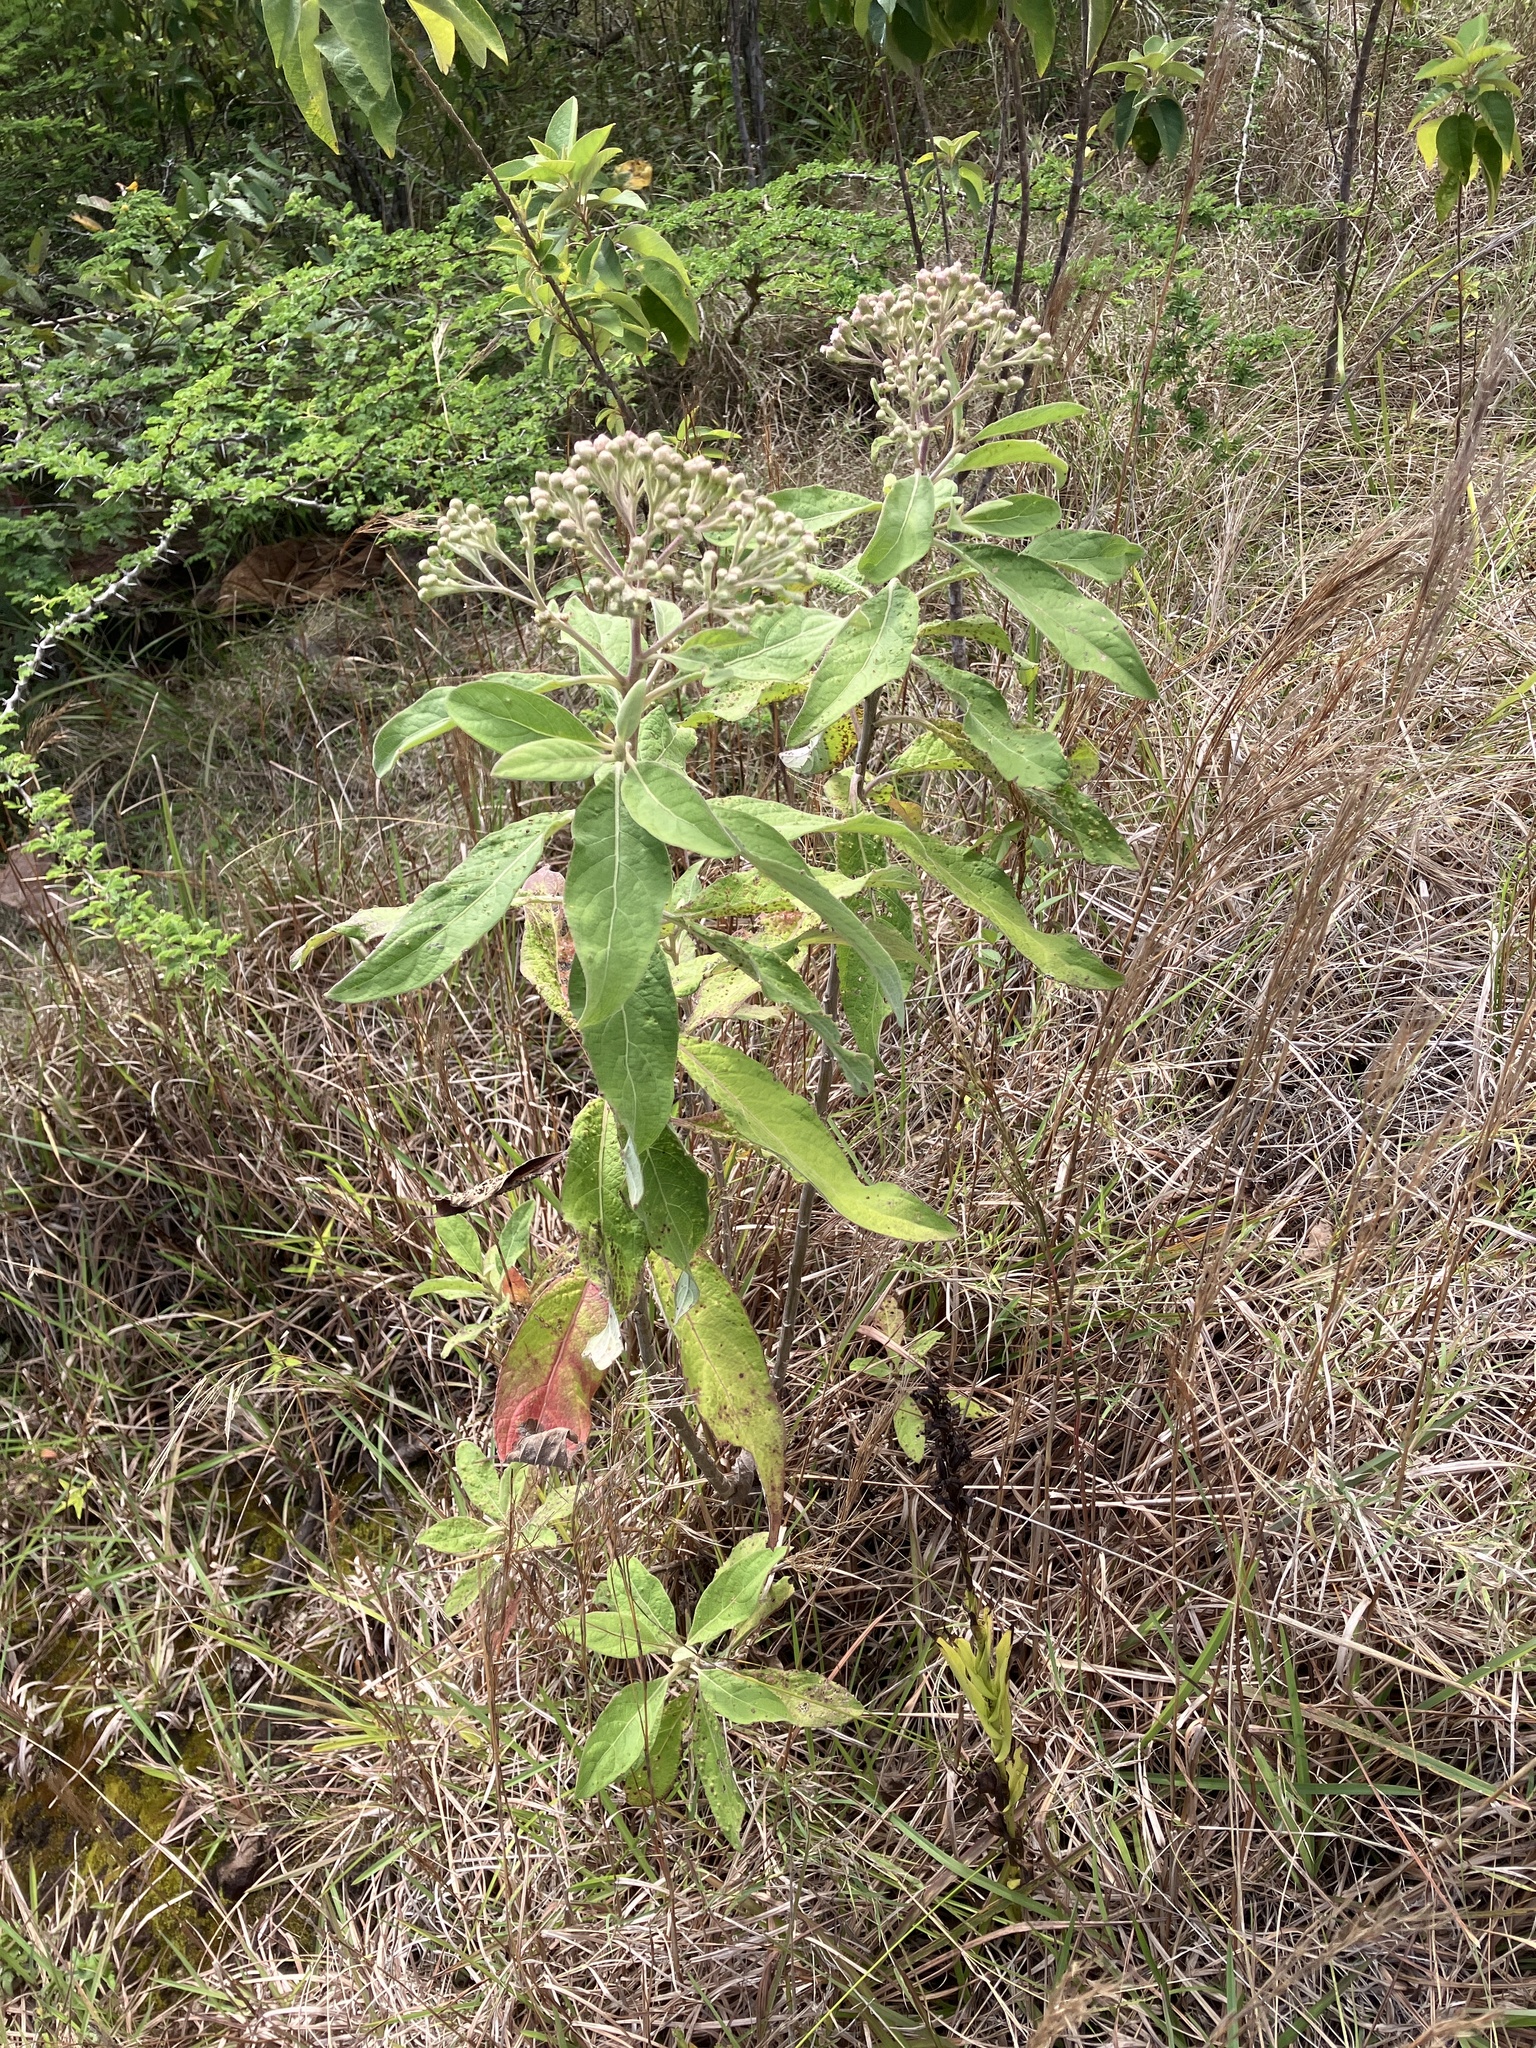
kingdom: Plantae
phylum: Tracheophyta
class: Magnoliopsida
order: Asterales
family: Asteraceae
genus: Pluchea
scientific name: Pluchea carolinensis
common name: Marsh fleabane
